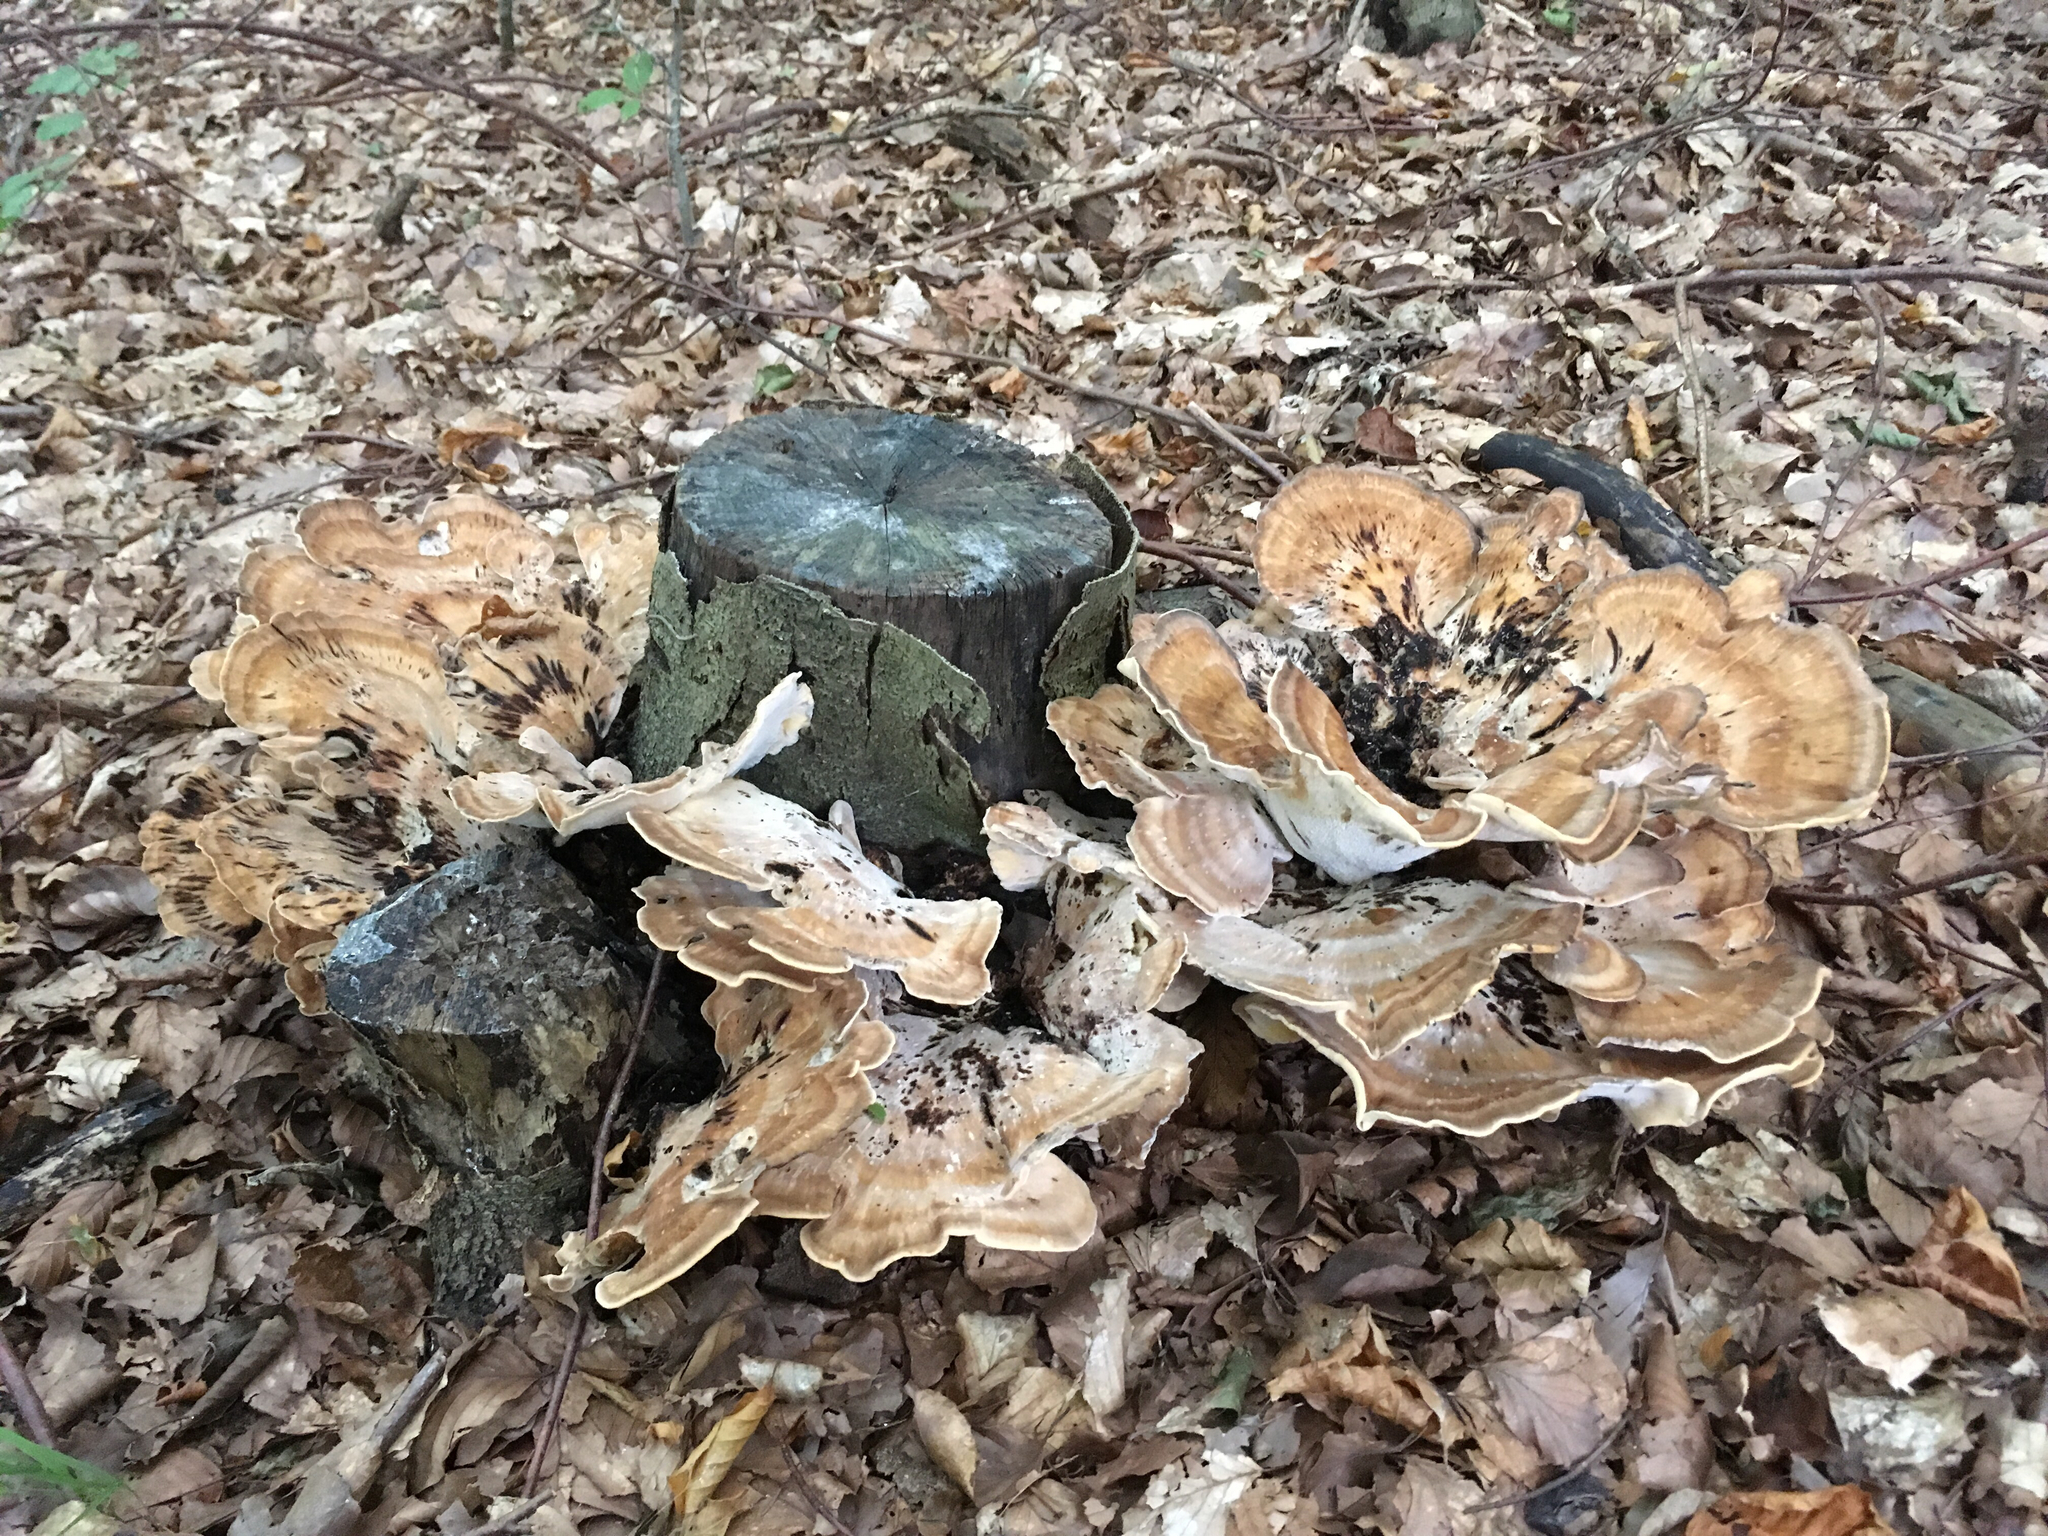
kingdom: Fungi
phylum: Basidiomycota
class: Agaricomycetes
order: Polyporales
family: Meripilaceae
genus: Meripilus
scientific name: Meripilus giganteus
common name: Giant polypore
